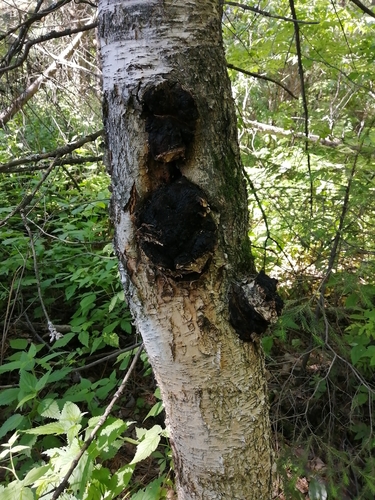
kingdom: Fungi
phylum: Basidiomycota
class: Agaricomycetes
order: Hymenochaetales
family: Hymenochaetaceae
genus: Inonotus
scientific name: Inonotus obliquus
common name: Chaga
